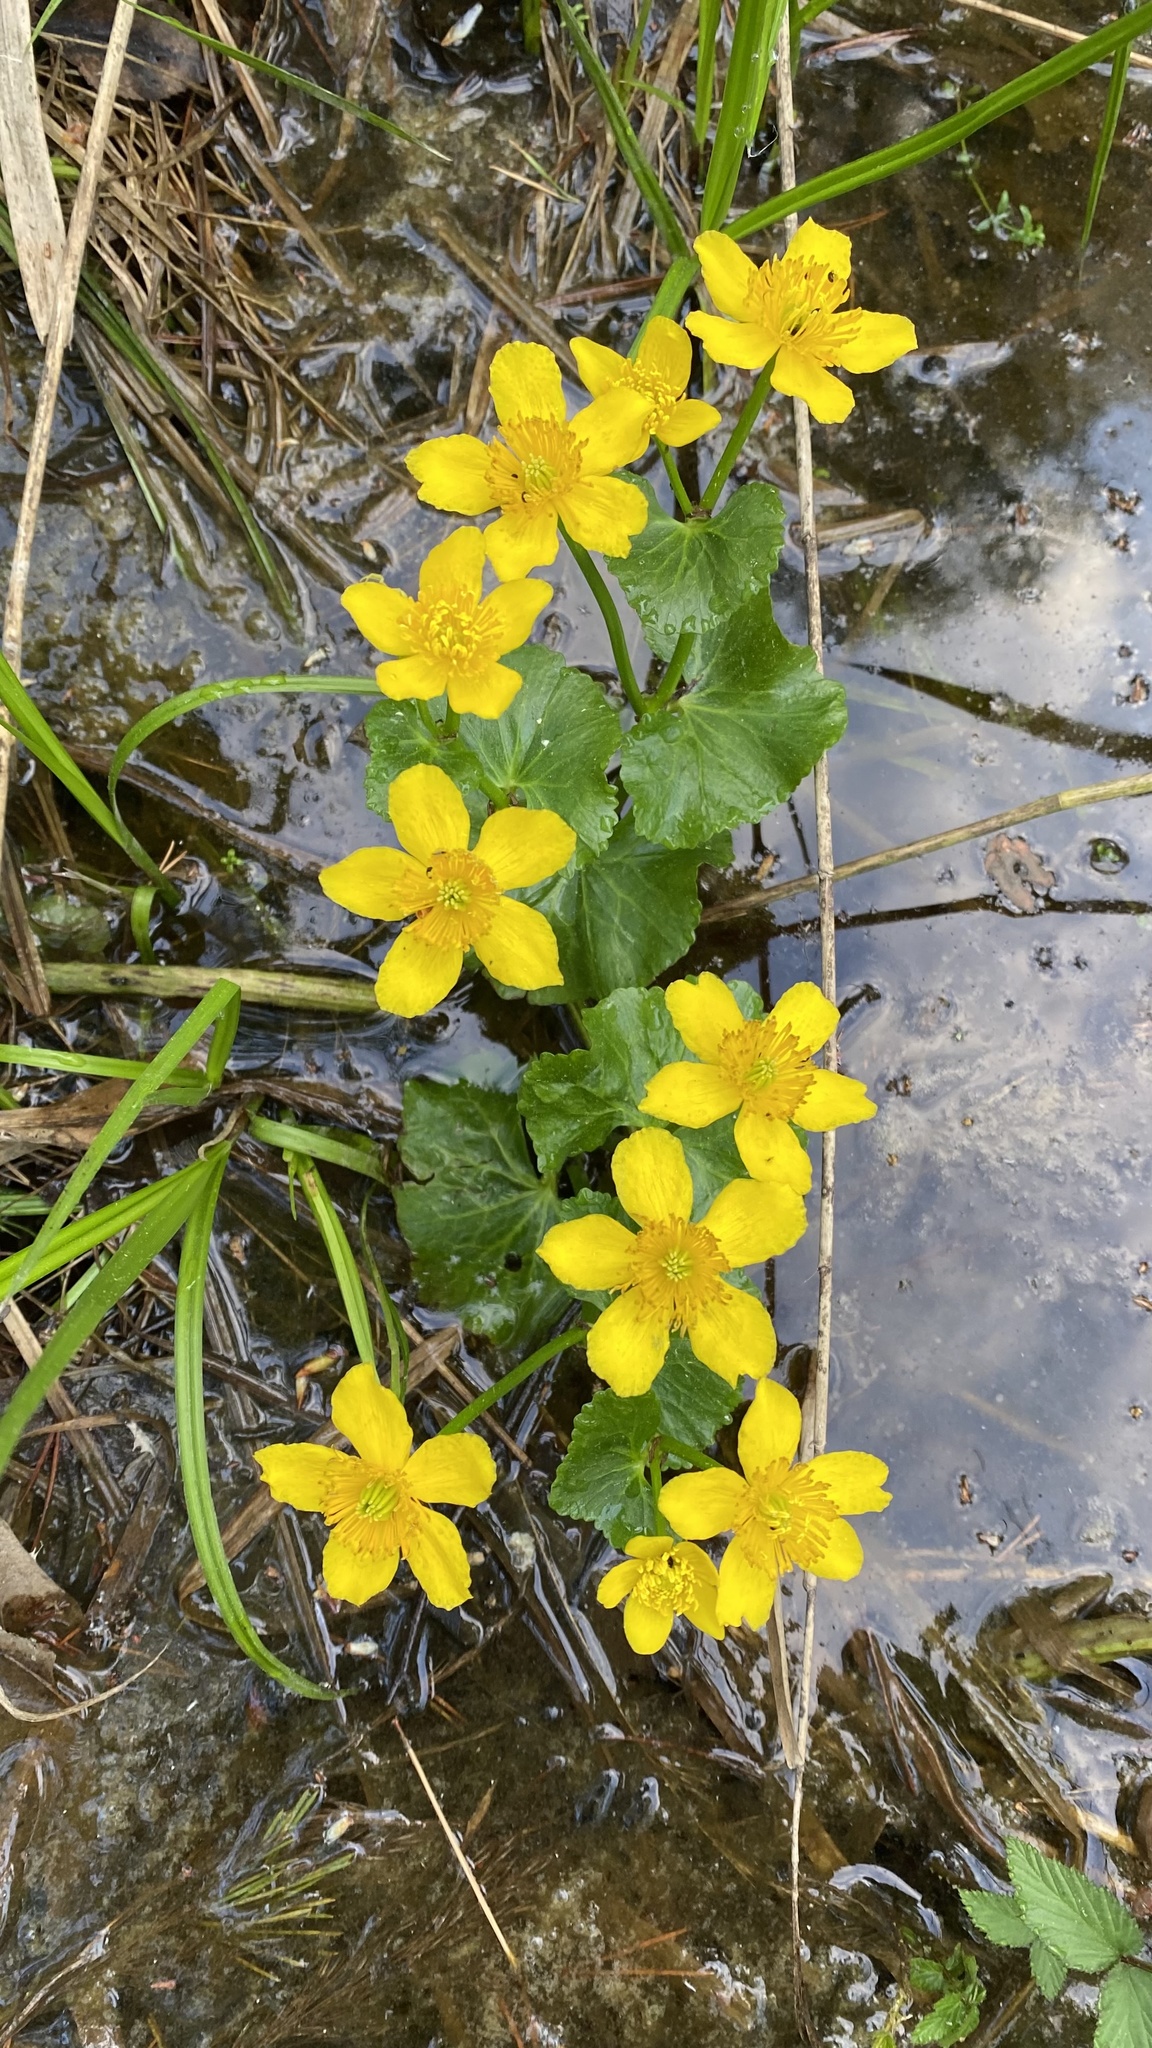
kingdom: Plantae
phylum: Tracheophyta
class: Magnoliopsida
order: Ranunculales
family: Ranunculaceae
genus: Caltha
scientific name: Caltha palustris
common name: Marsh marigold
